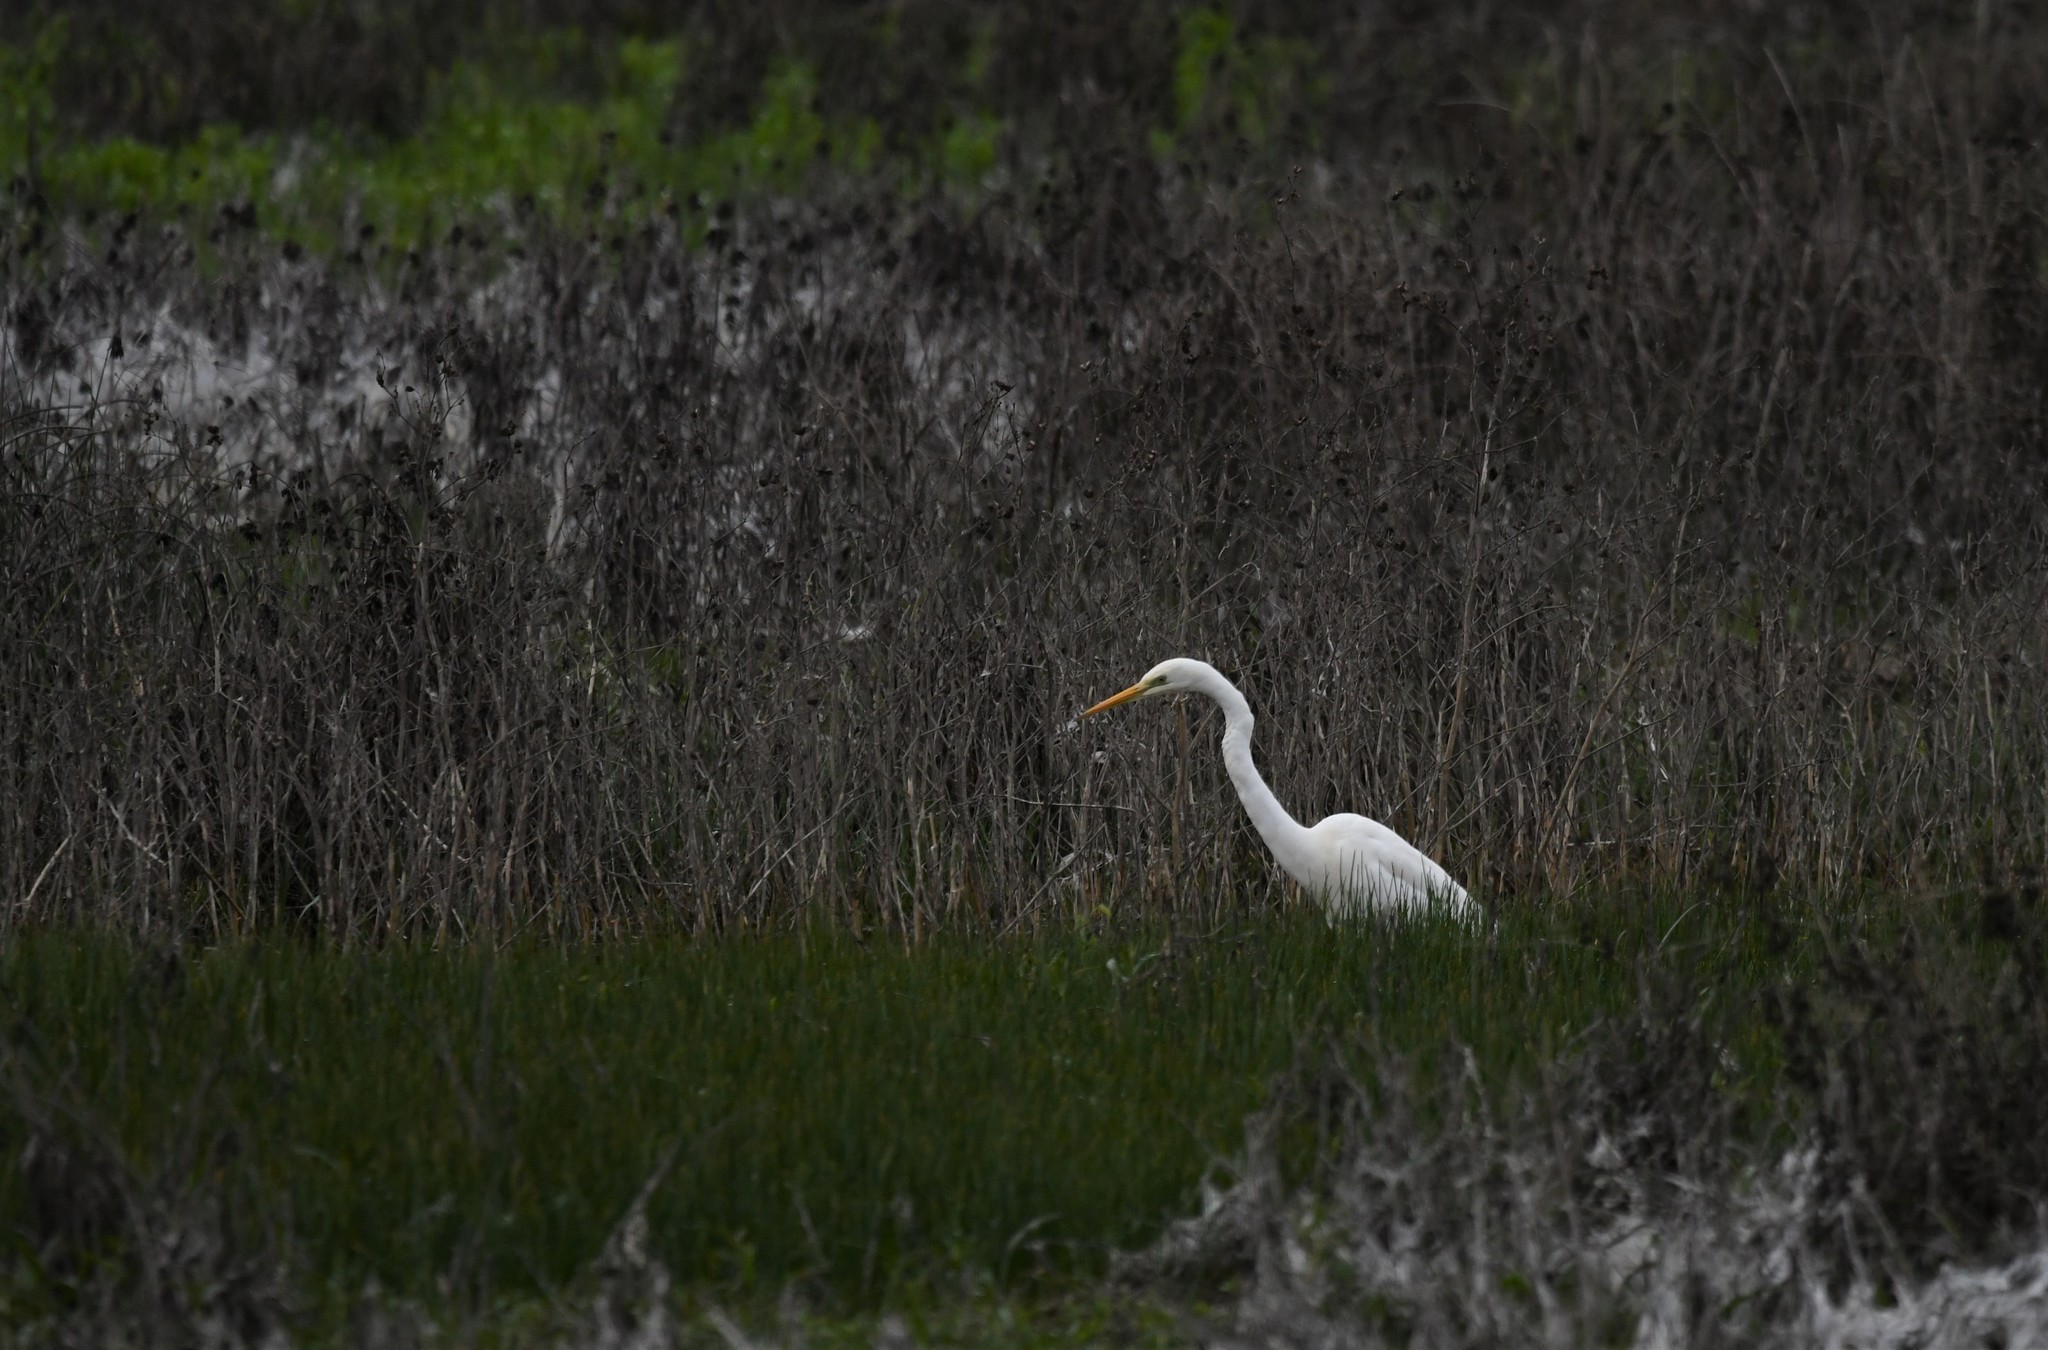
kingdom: Animalia
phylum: Chordata
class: Aves
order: Pelecaniformes
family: Ardeidae
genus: Ardea
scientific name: Ardea alba
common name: Great egret
